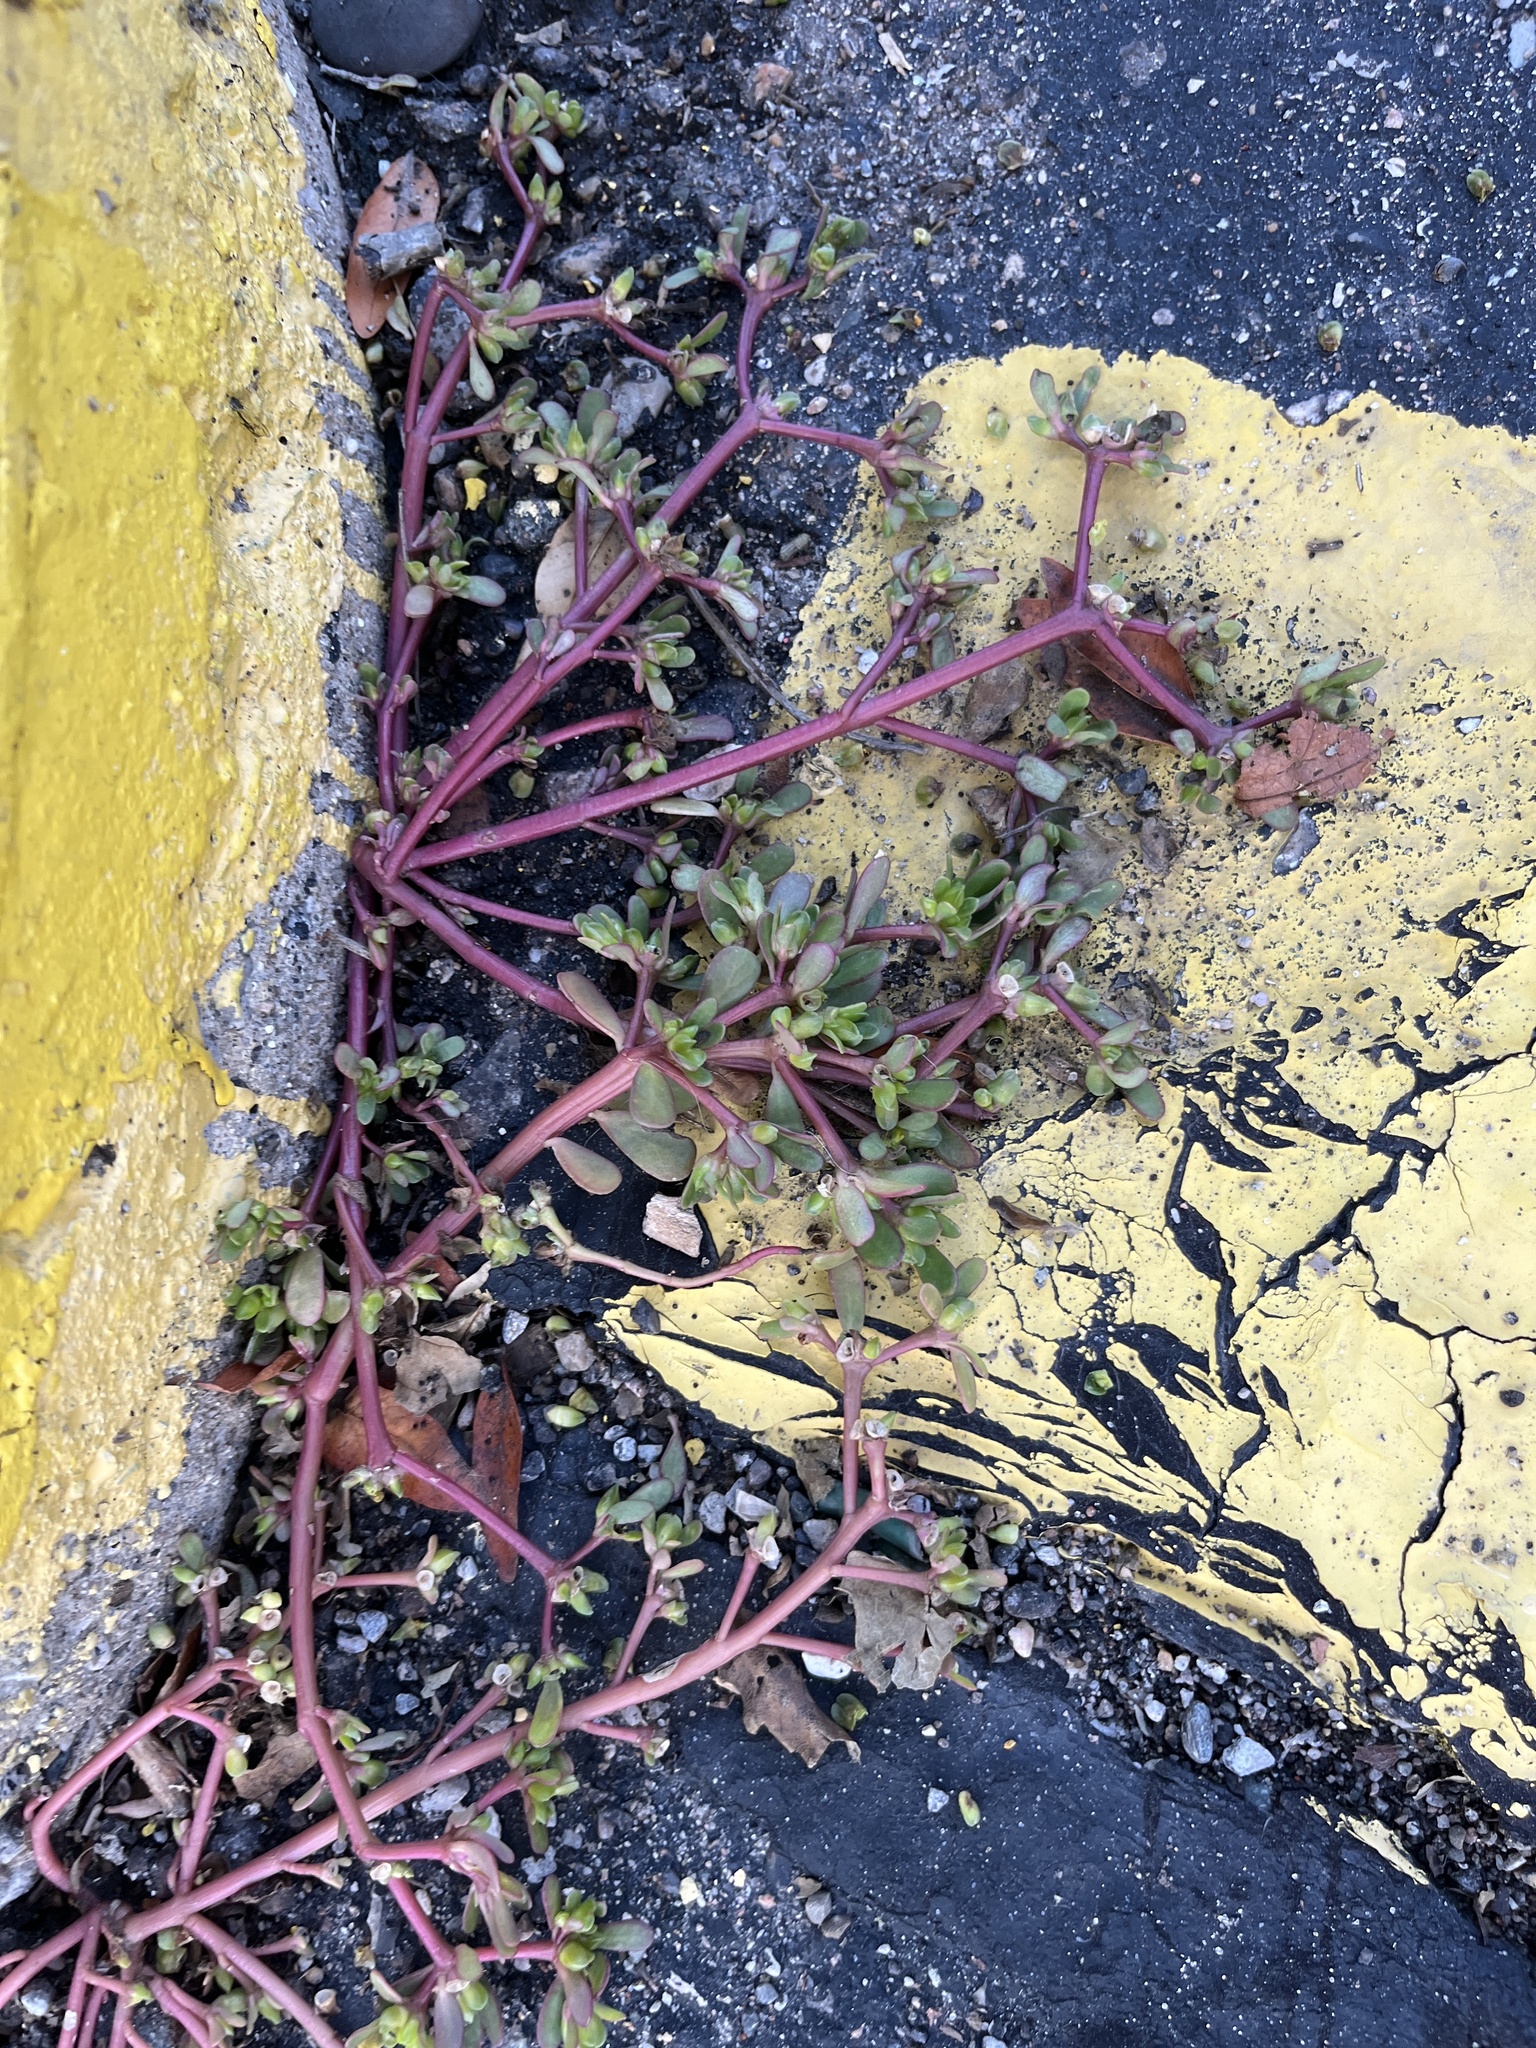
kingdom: Plantae
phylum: Tracheophyta
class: Magnoliopsida
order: Caryophyllales
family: Portulacaceae
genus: Portulaca
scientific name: Portulaca oleracea
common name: Common purslane
